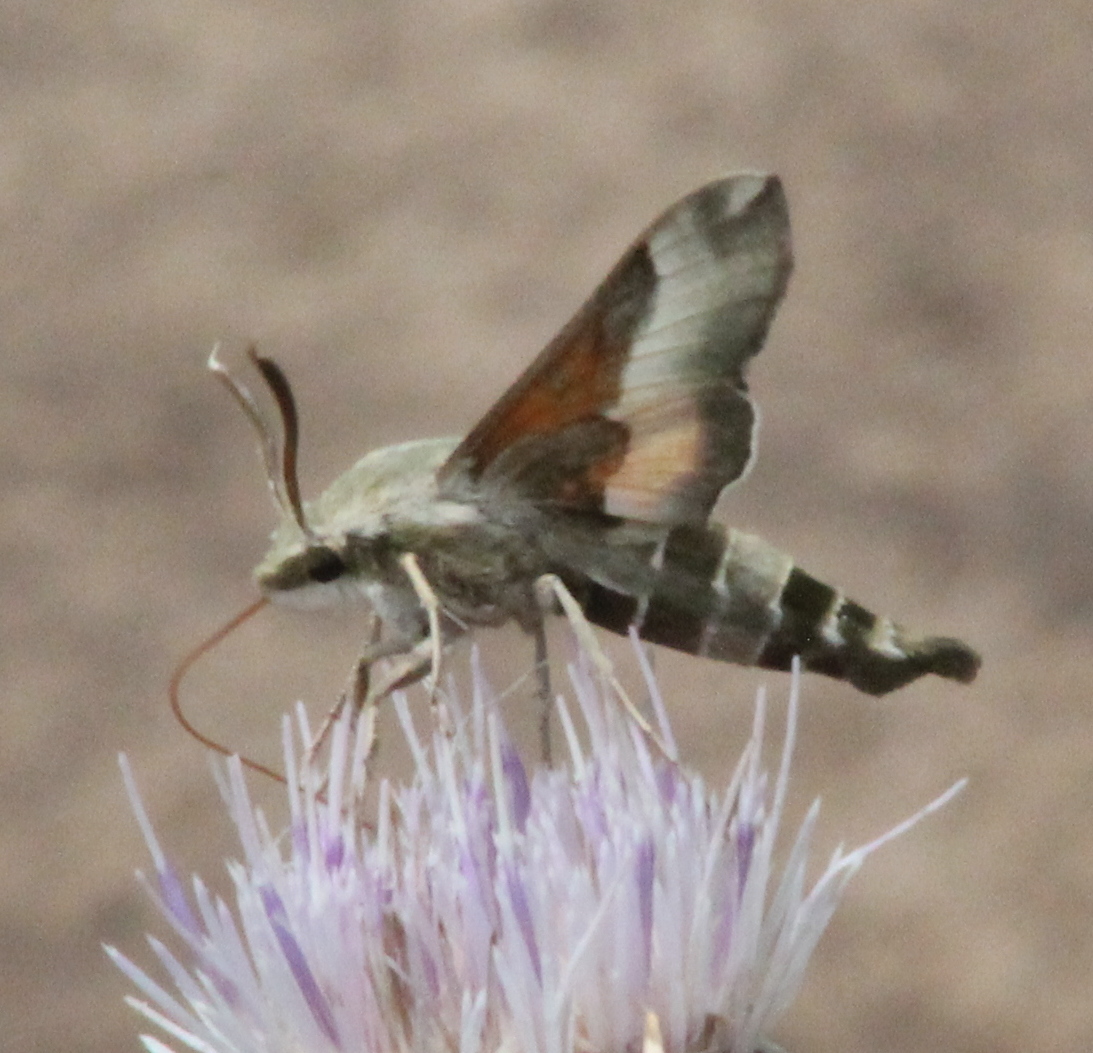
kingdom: Animalia
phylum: Arthropoda
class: Insecta
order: Lepidoptera
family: Sphingidae
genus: Proserpinus
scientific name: Proserpinus juanita
